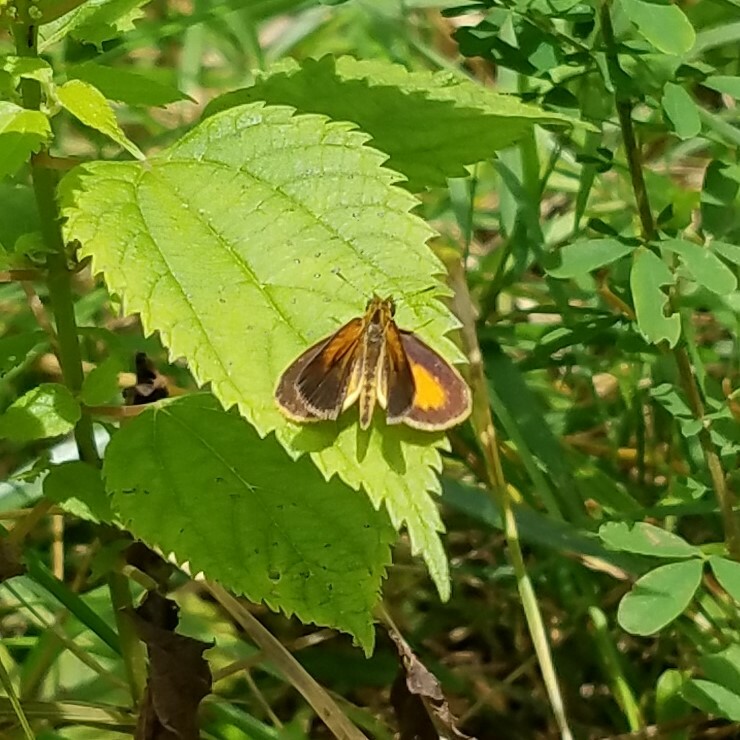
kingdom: Animalia
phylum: Arthropoda
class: Insecta
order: Lepidoptera
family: Hesperiidae
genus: Ancyloxypha
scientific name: Ancyloxypha numitor
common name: Least skipper
